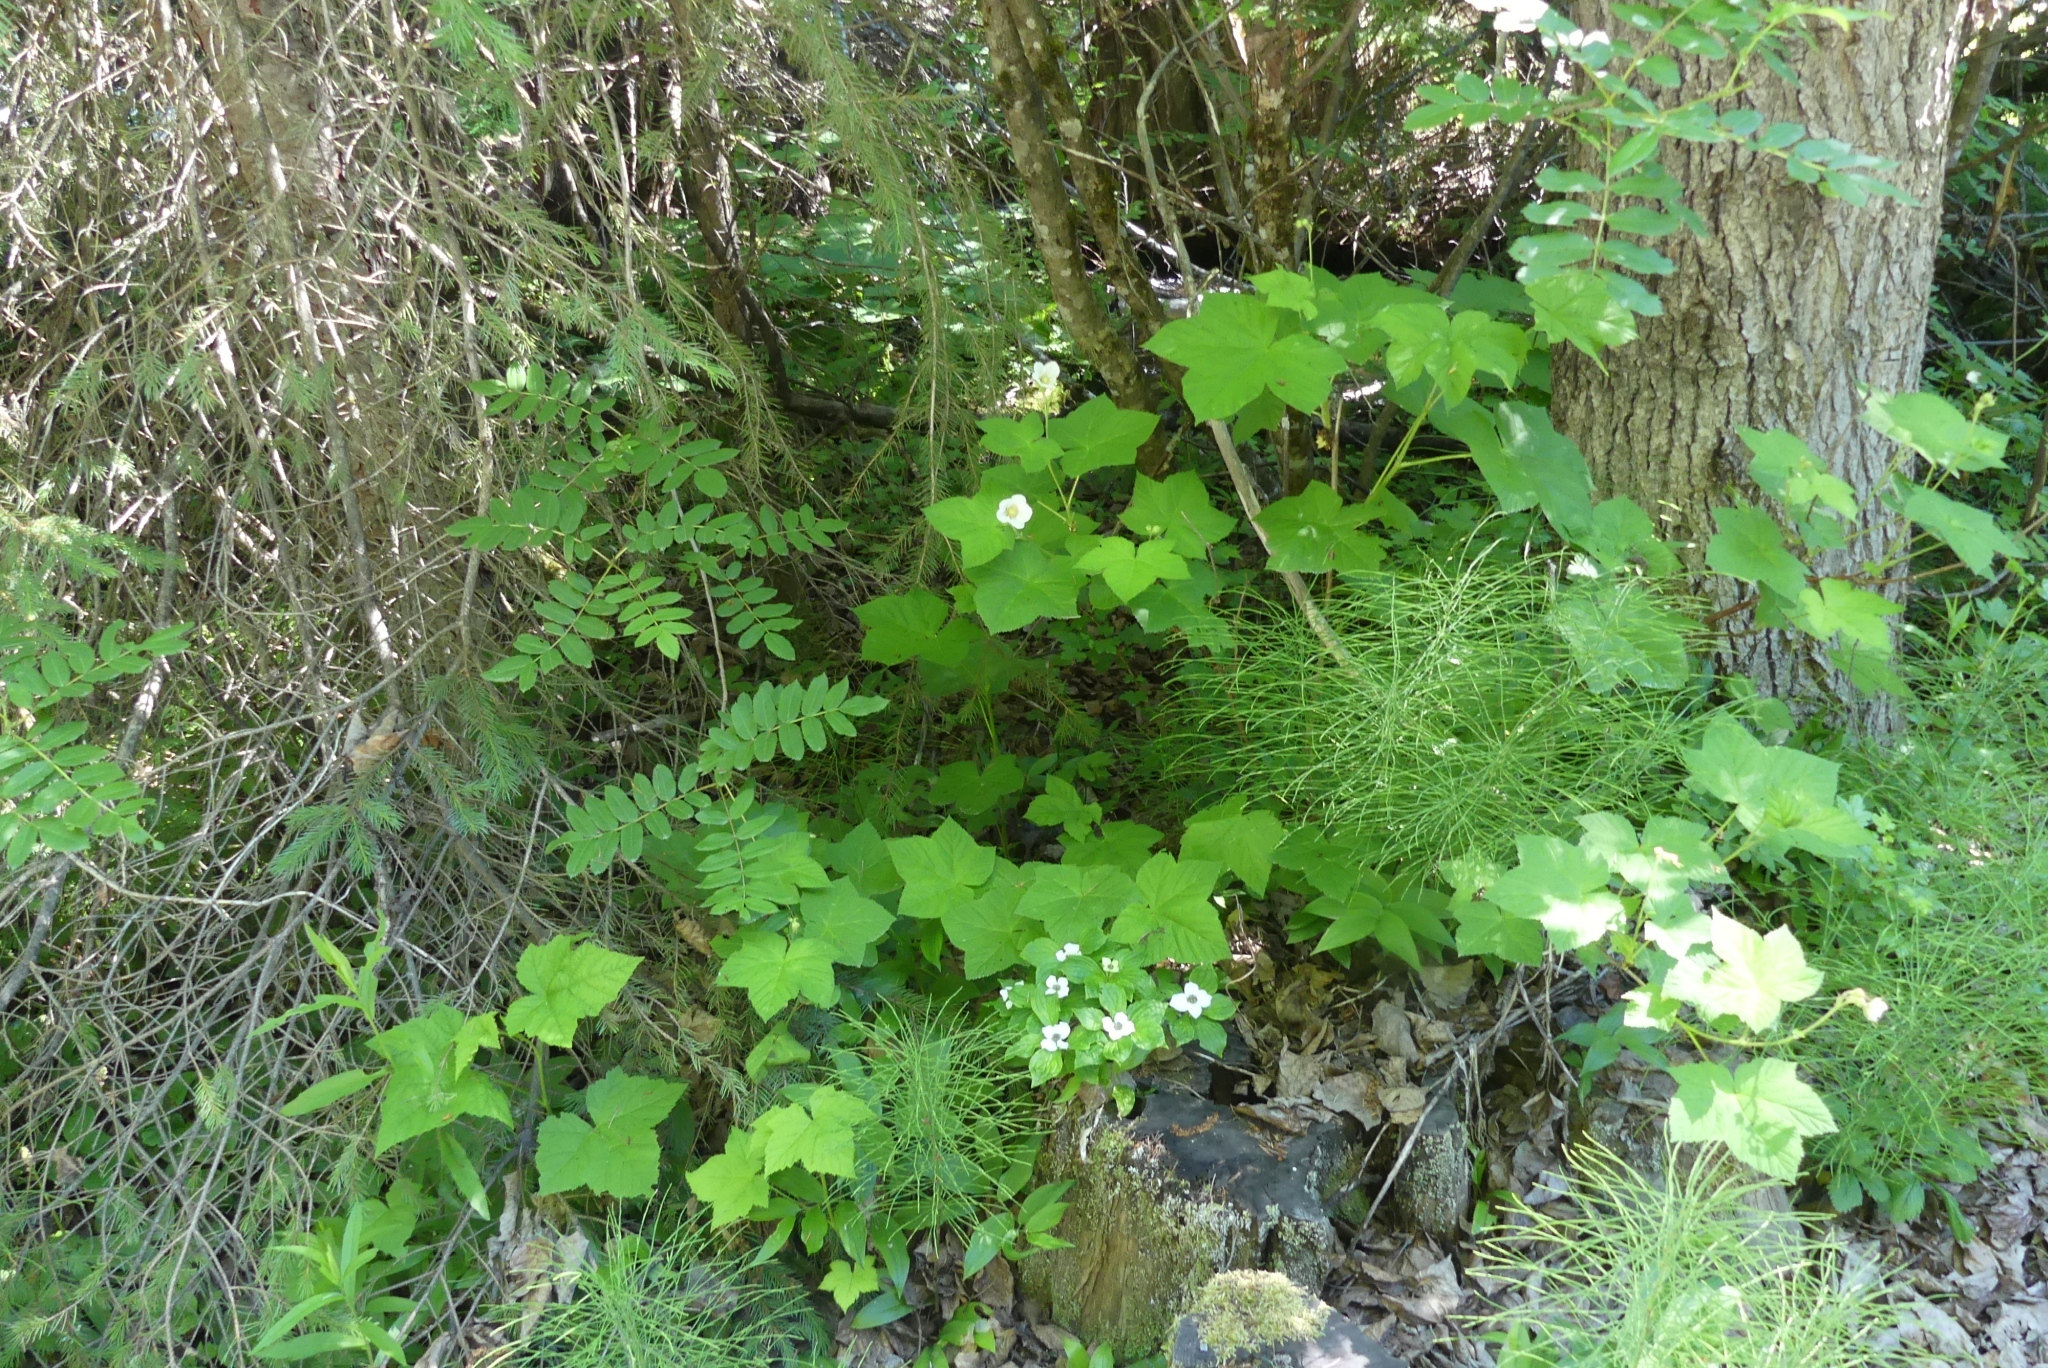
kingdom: Plantae
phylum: Tracheophyta
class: Magnoliopsida
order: Rosales
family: Rosaceae
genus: Rubus
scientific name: Rubus parviflorus
